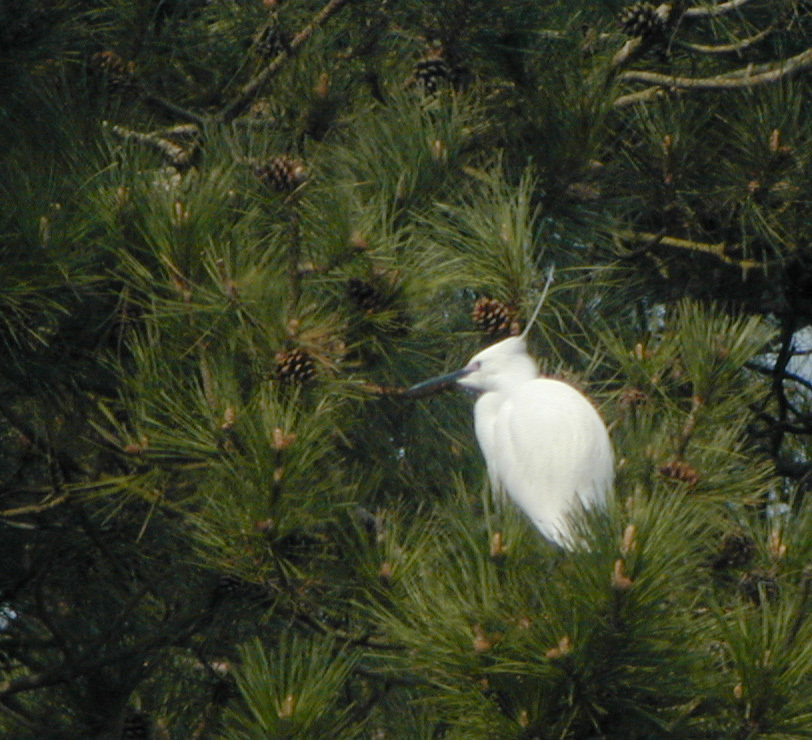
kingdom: Animalia
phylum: Chordata
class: Aves
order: Pelecaniformes
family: Ardeidae
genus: Egretta
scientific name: Egretta garzetta
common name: Little egret
